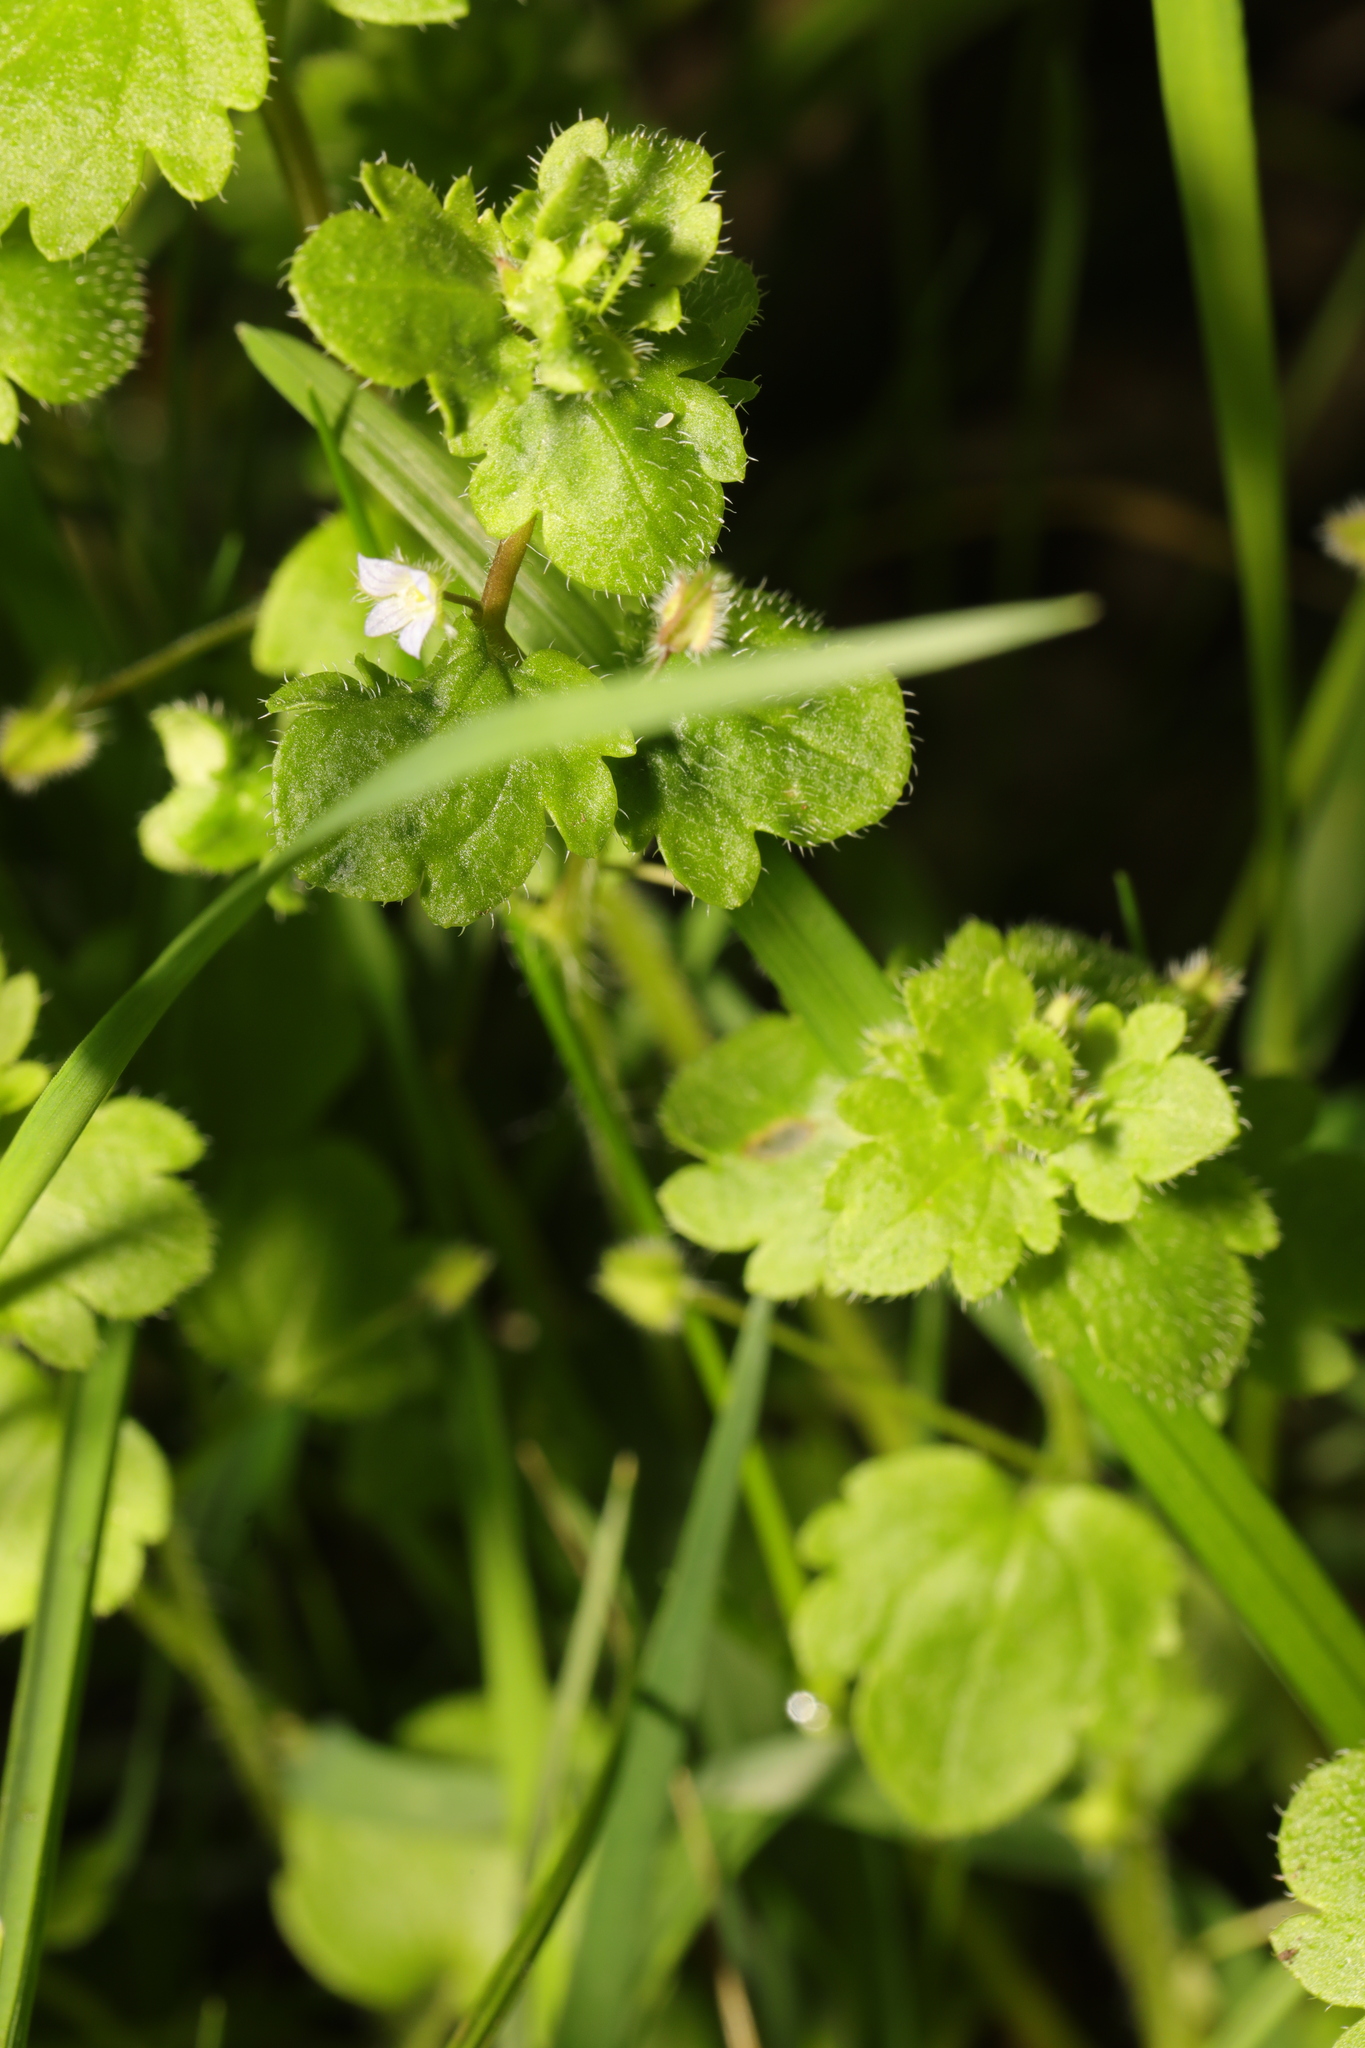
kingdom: Plantae
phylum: Tracheophyta
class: Magnoliopsida
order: Lamiales
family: Plantaginaceae
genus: Veronica
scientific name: Veronica sublobata
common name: False ivy-leaved speedwell
